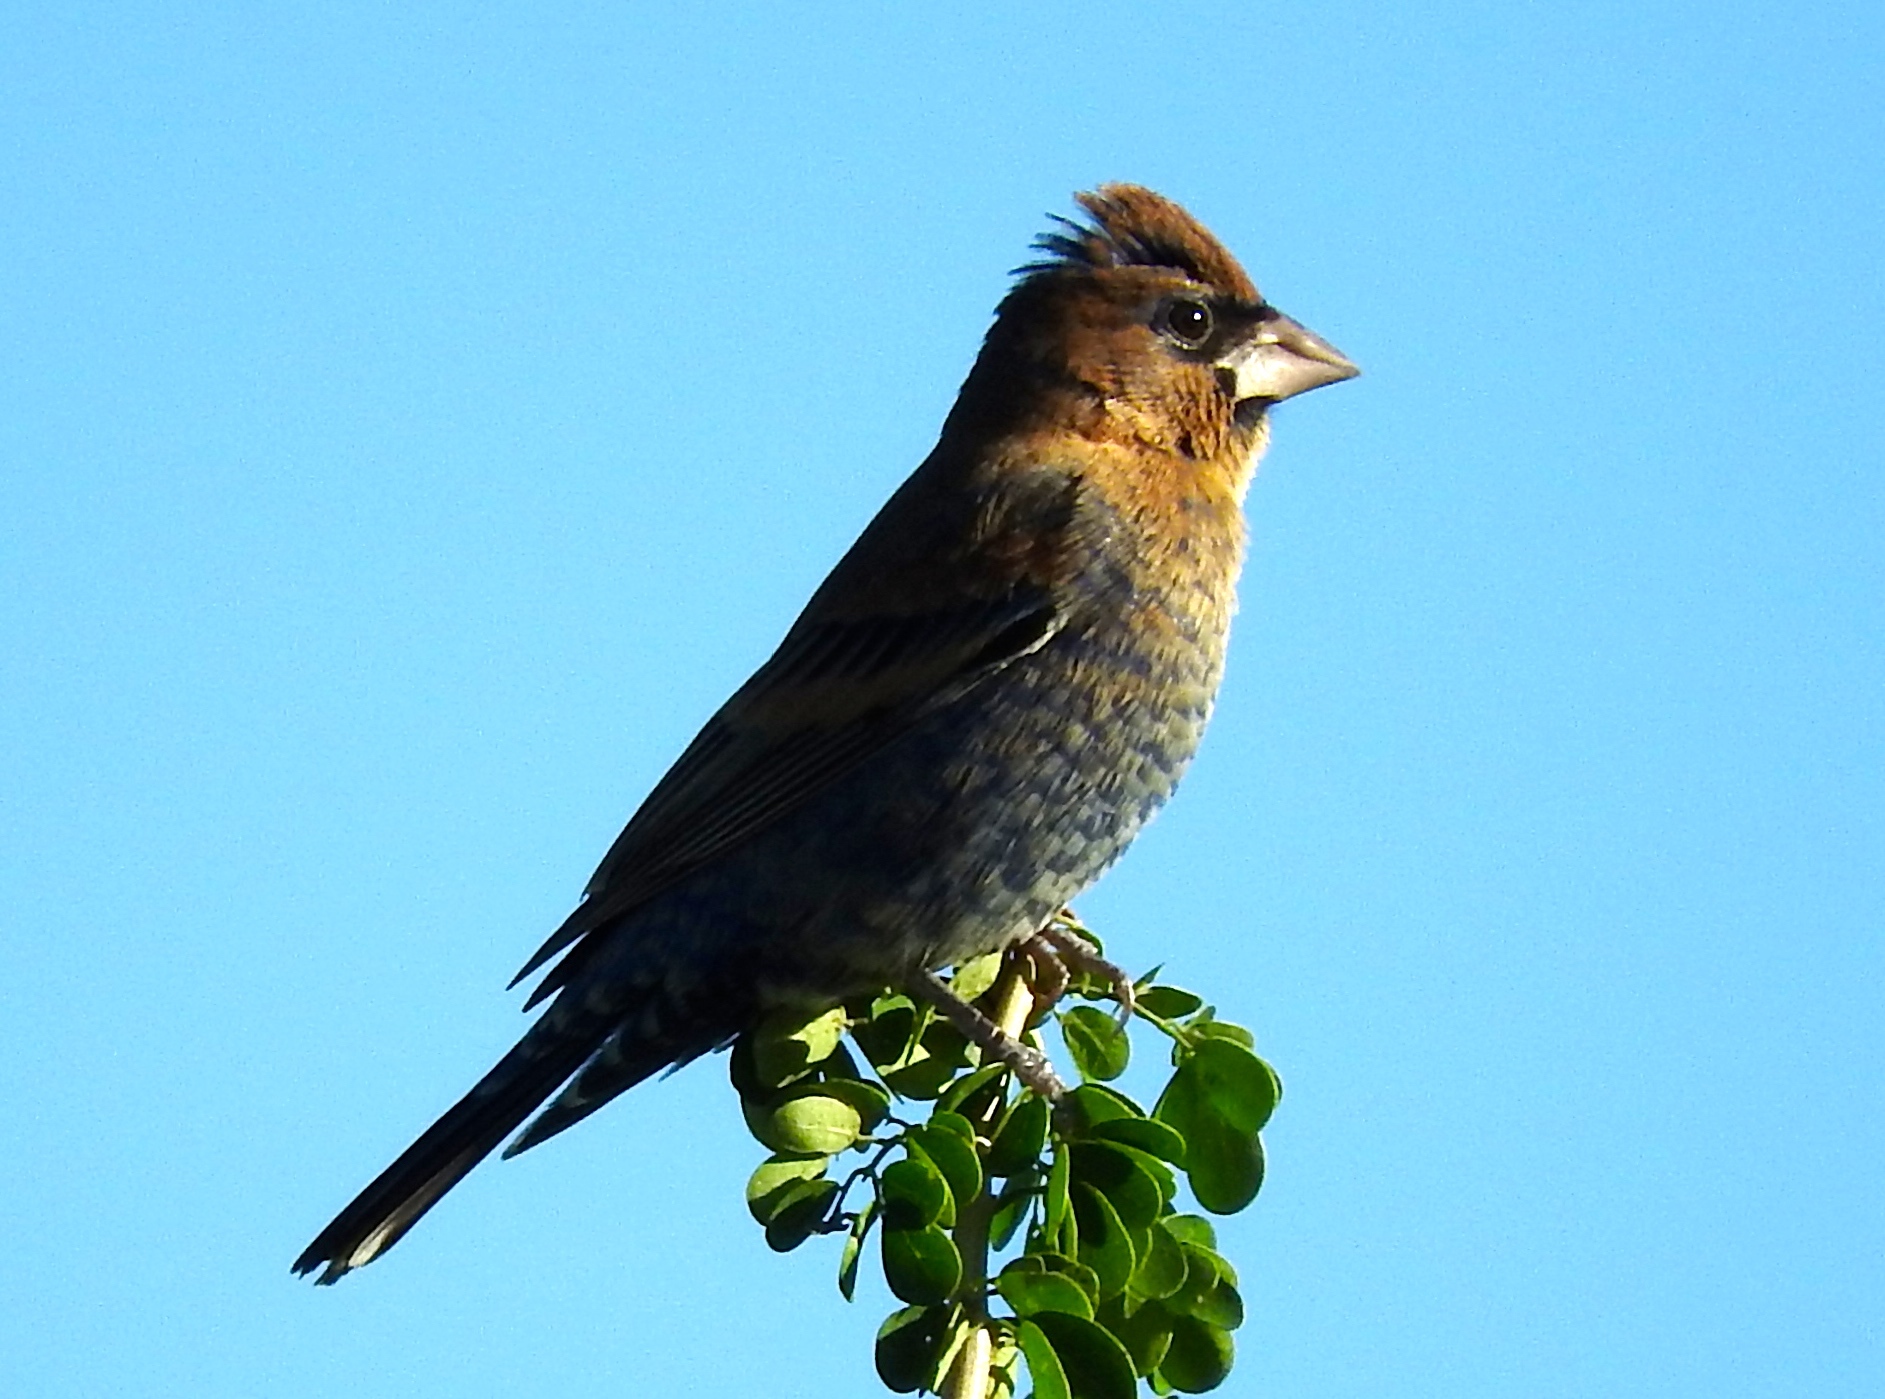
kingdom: Animalia
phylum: Chordata
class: Aves
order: Passeriformes
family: Cardinalidae
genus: Passerina
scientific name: Passerina caerulea
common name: Blue grosbeak
